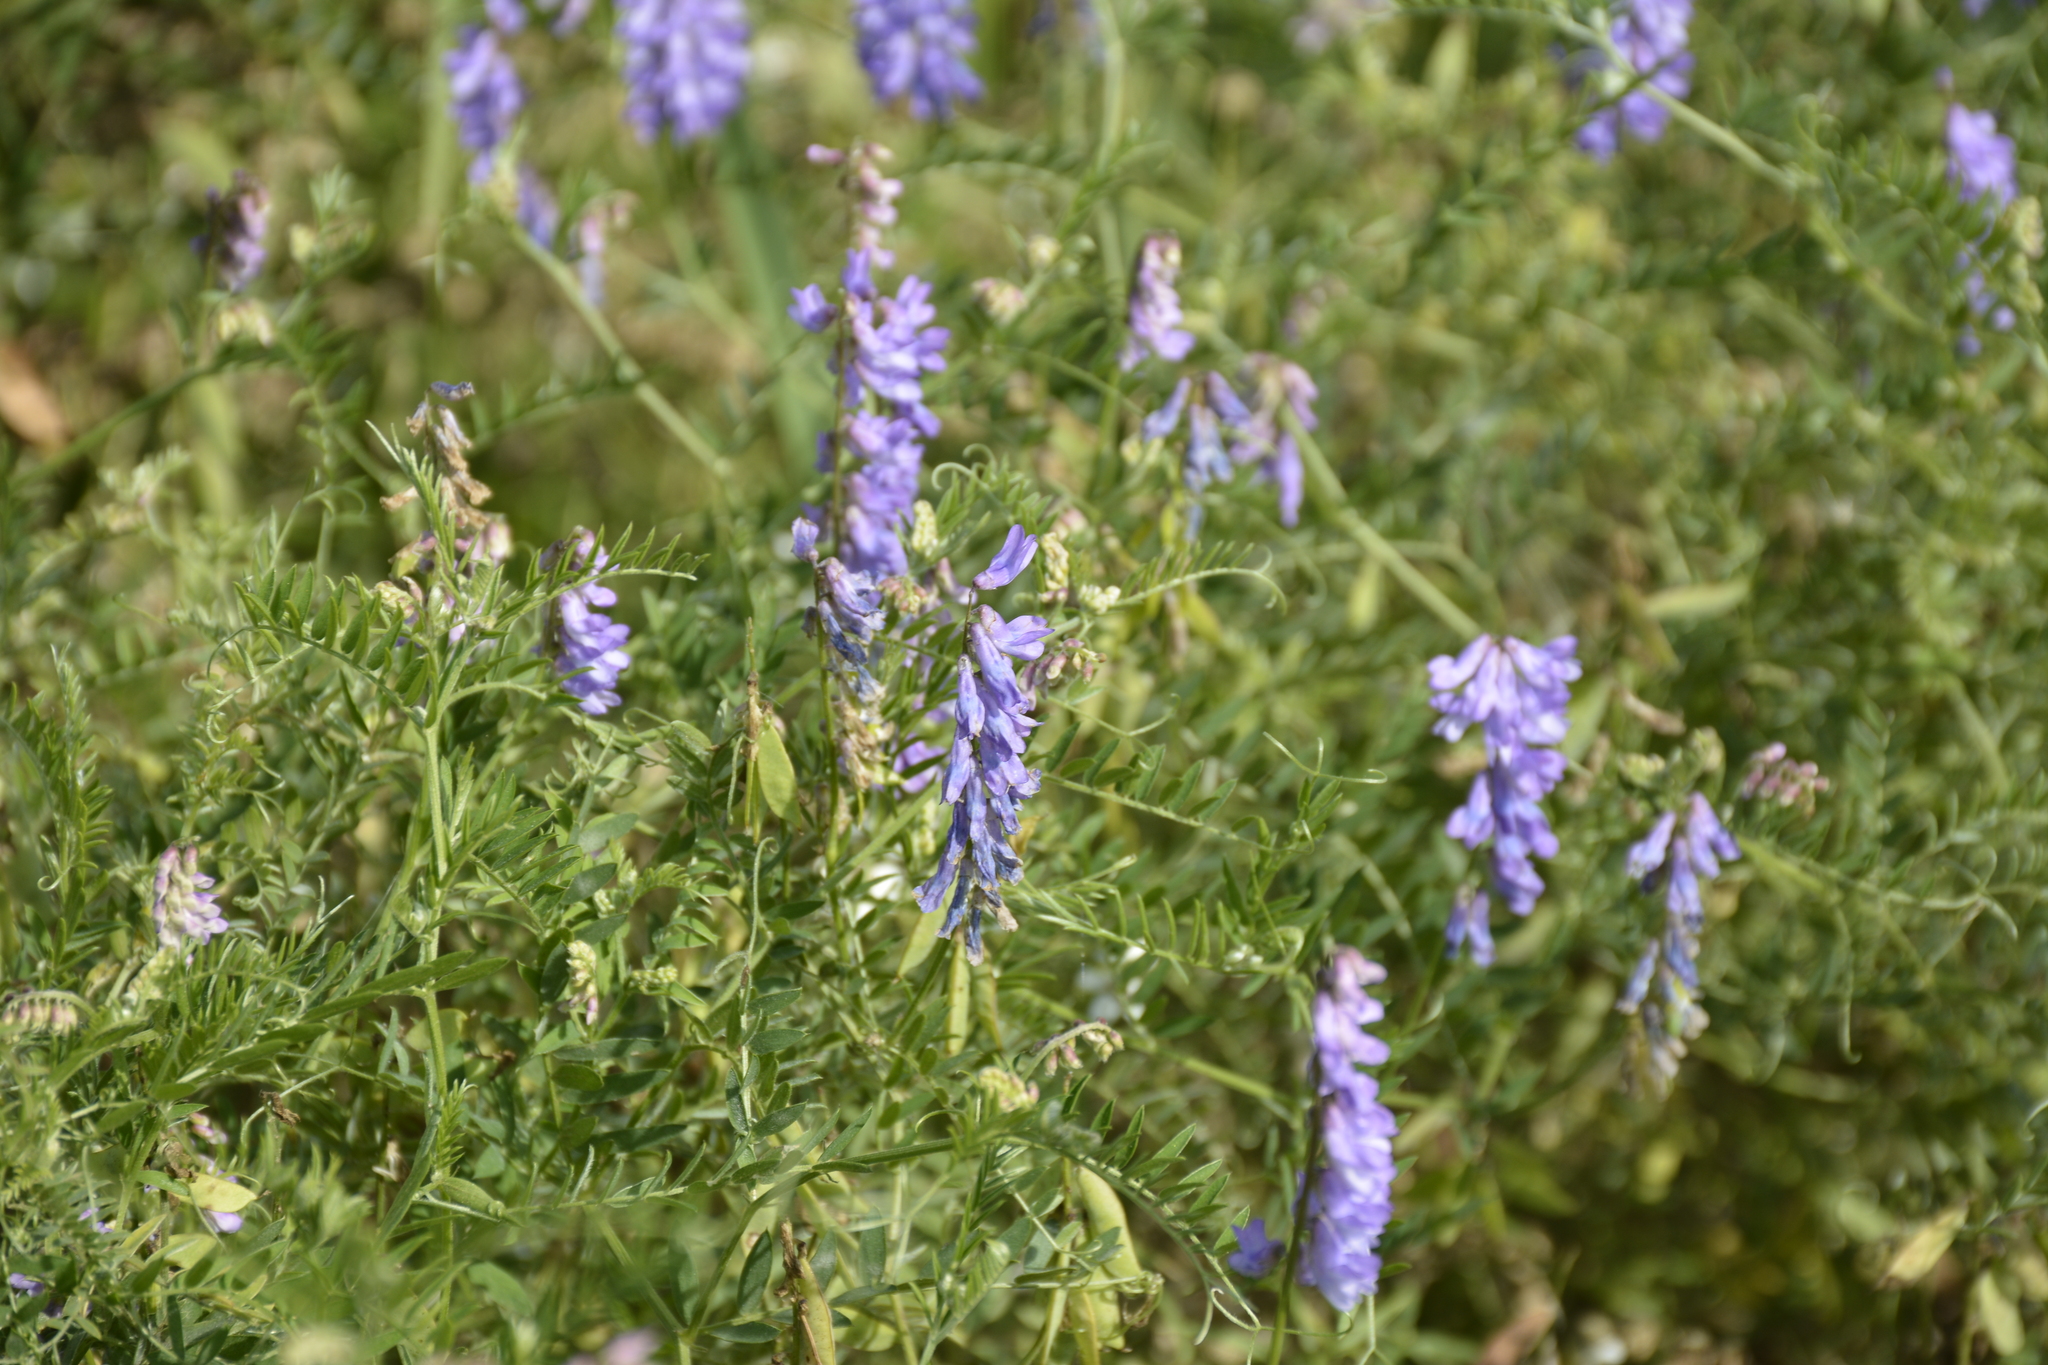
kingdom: Plantae
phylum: Tracheophyta
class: Magnoliopsida
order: Fabales
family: Fabaceae
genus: Vicia
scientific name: Vicia cracca
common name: Bird vetch
